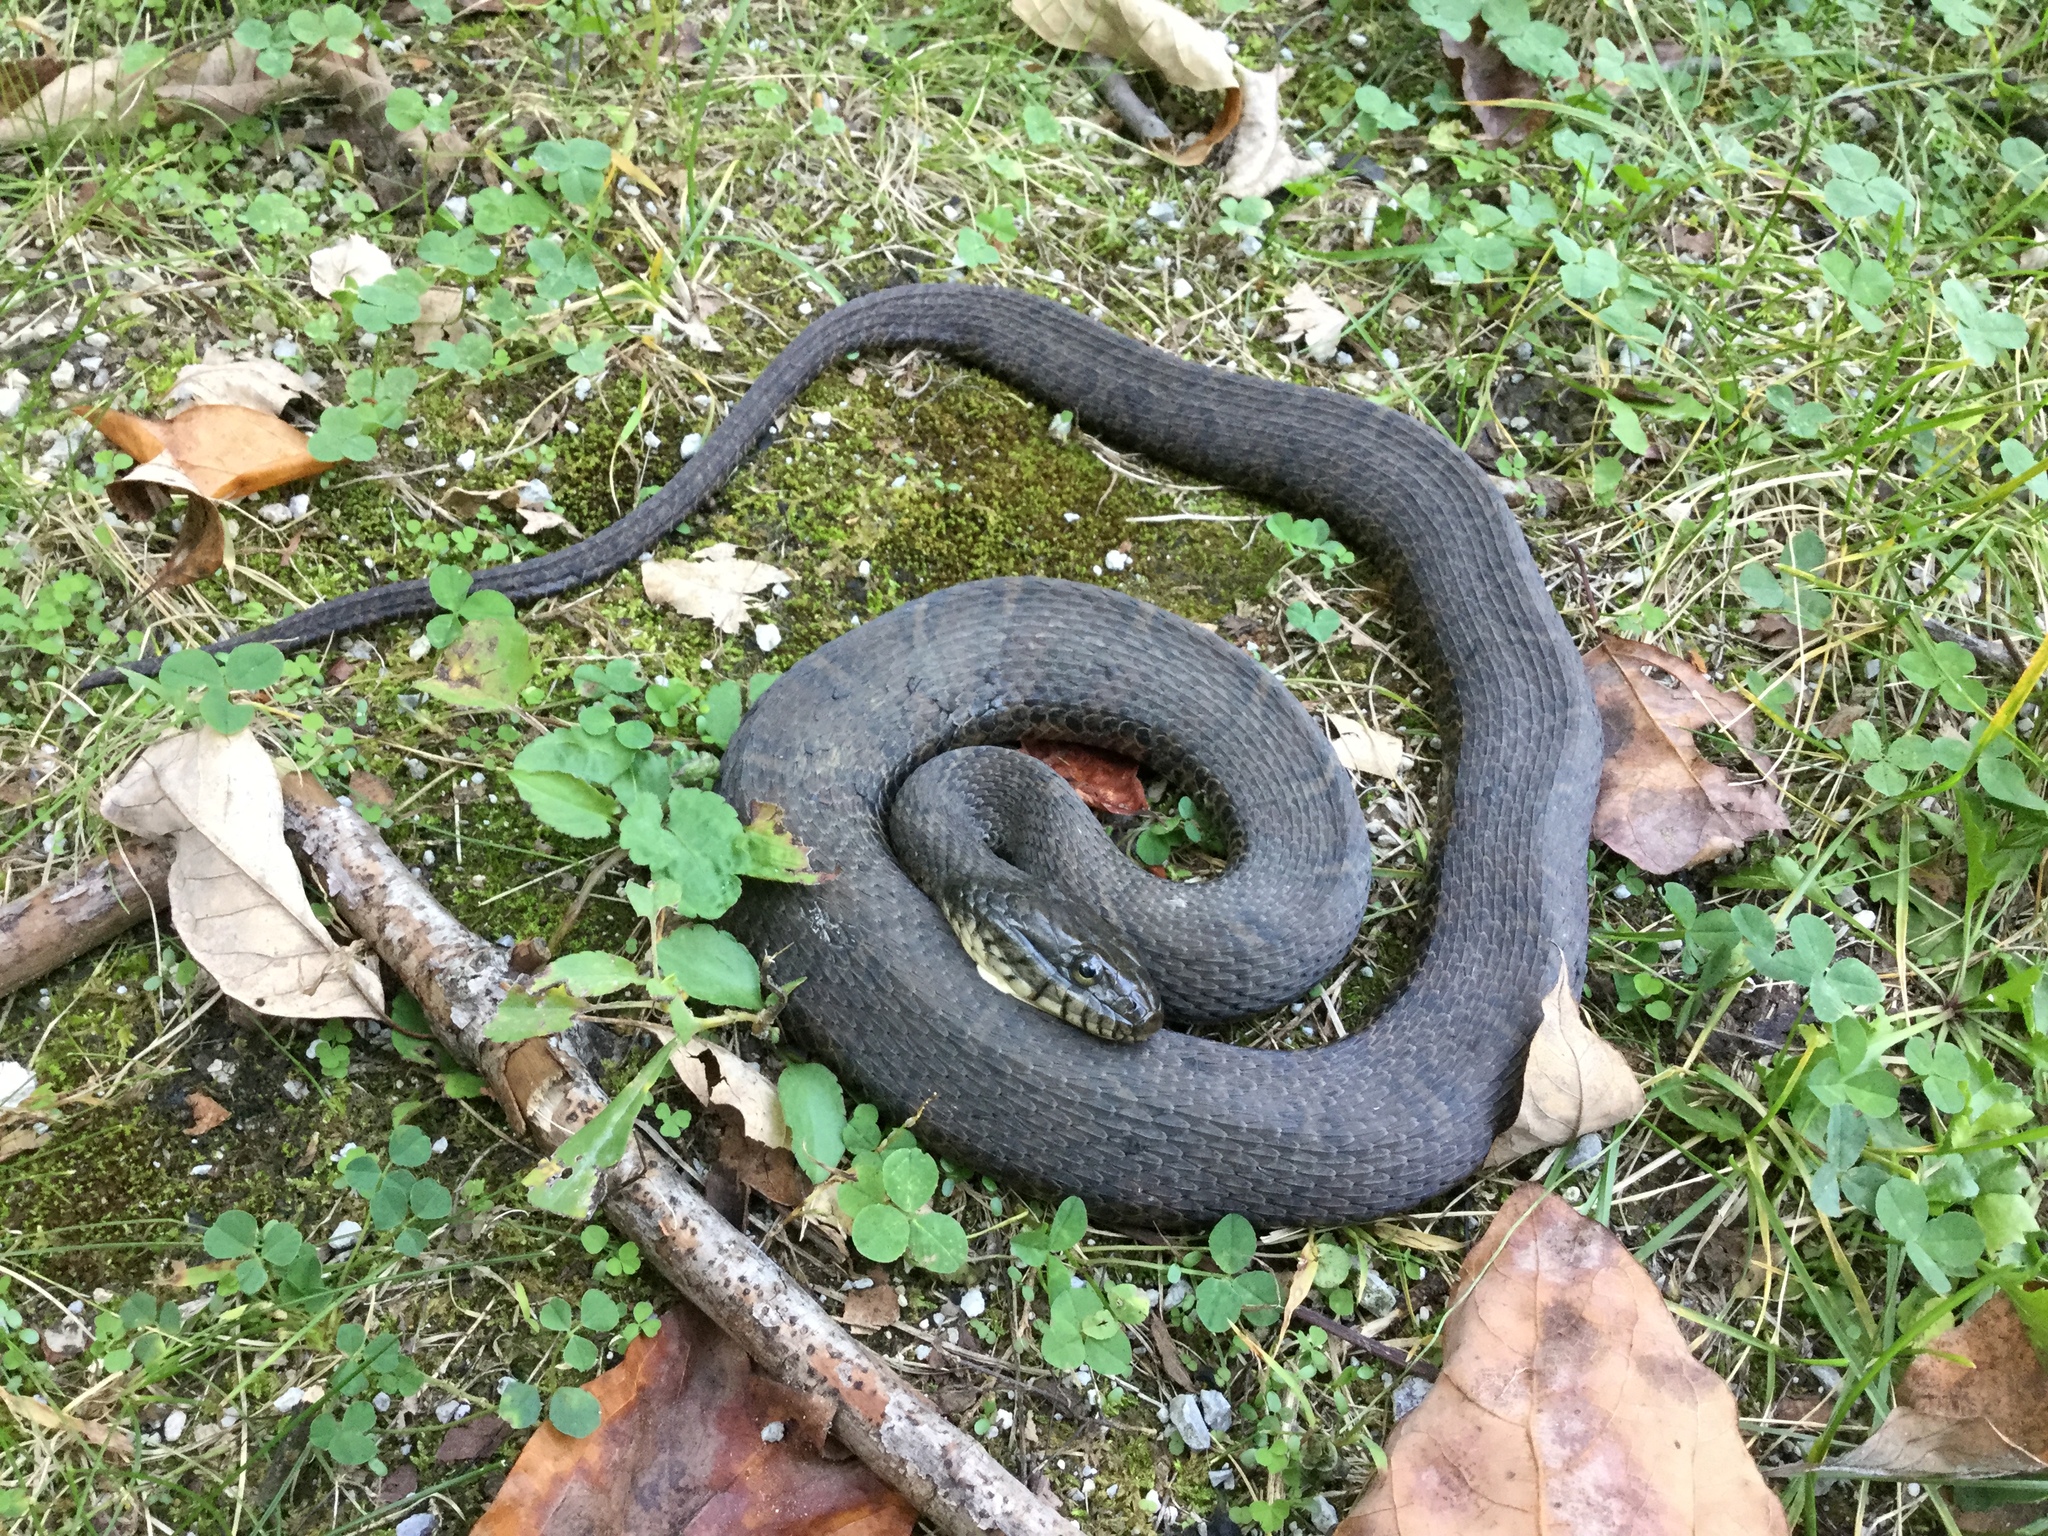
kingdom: Animalia
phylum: Chordata
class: Squamata
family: Colubridae
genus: Nerodia
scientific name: Nerodia sipedon
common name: Northern water snake
